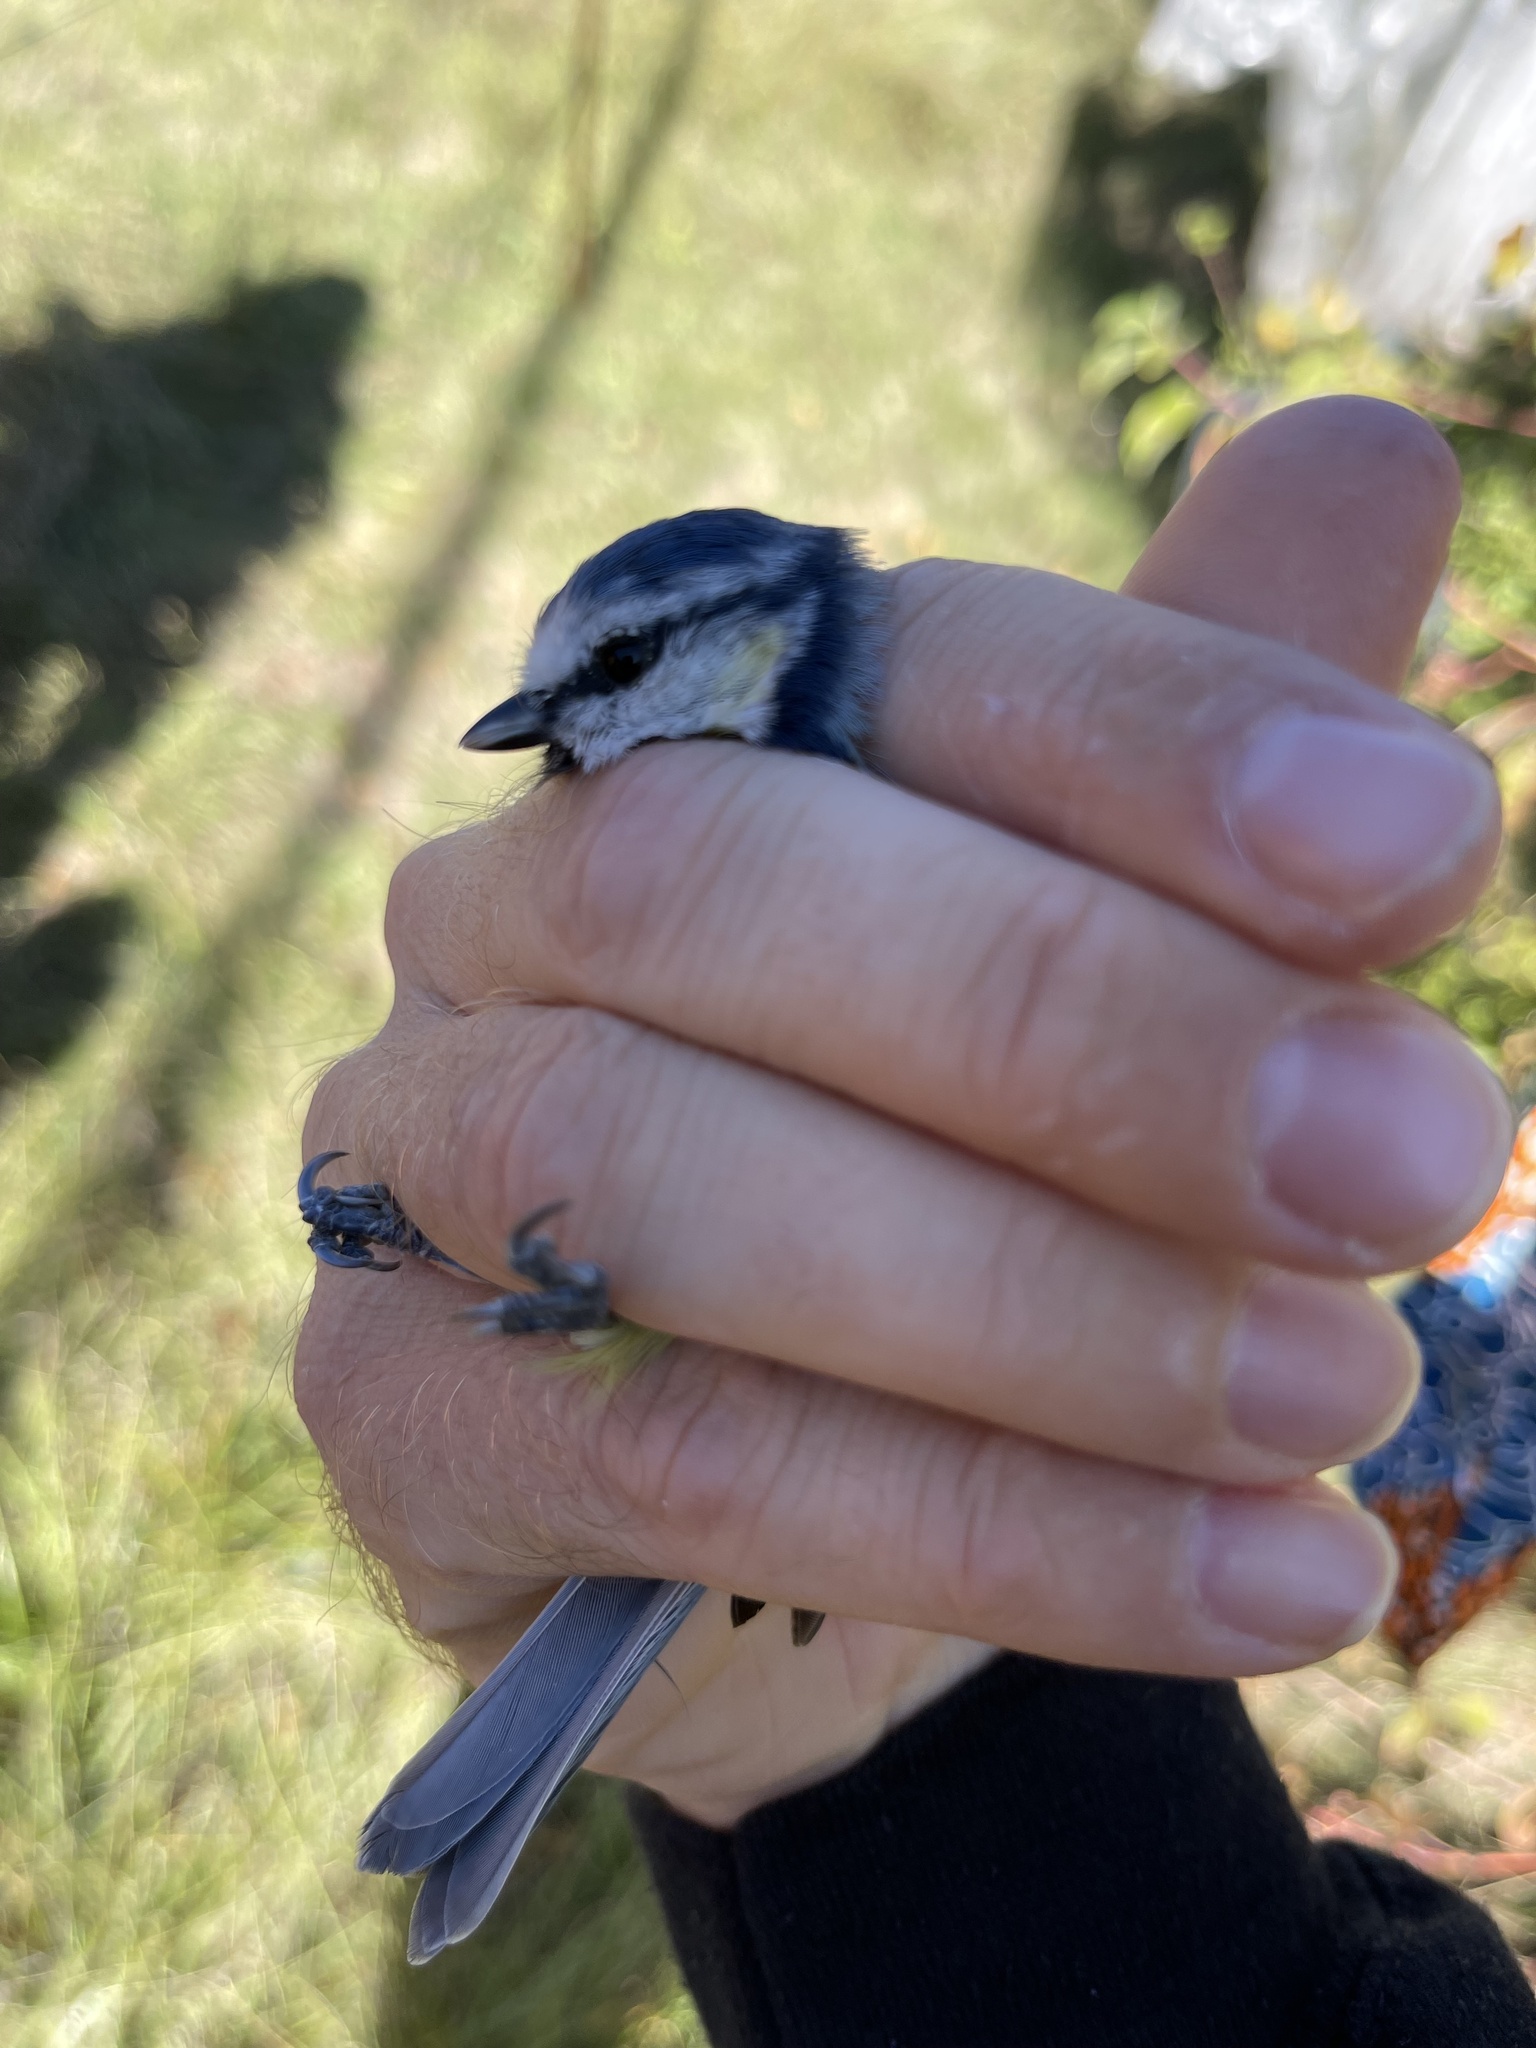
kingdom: Animalia
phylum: Chordata
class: Aves
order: Passeriformes
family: Paridae
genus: Cyanistes
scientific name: Cyanistes caeruleus
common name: Eurasian blue tit
